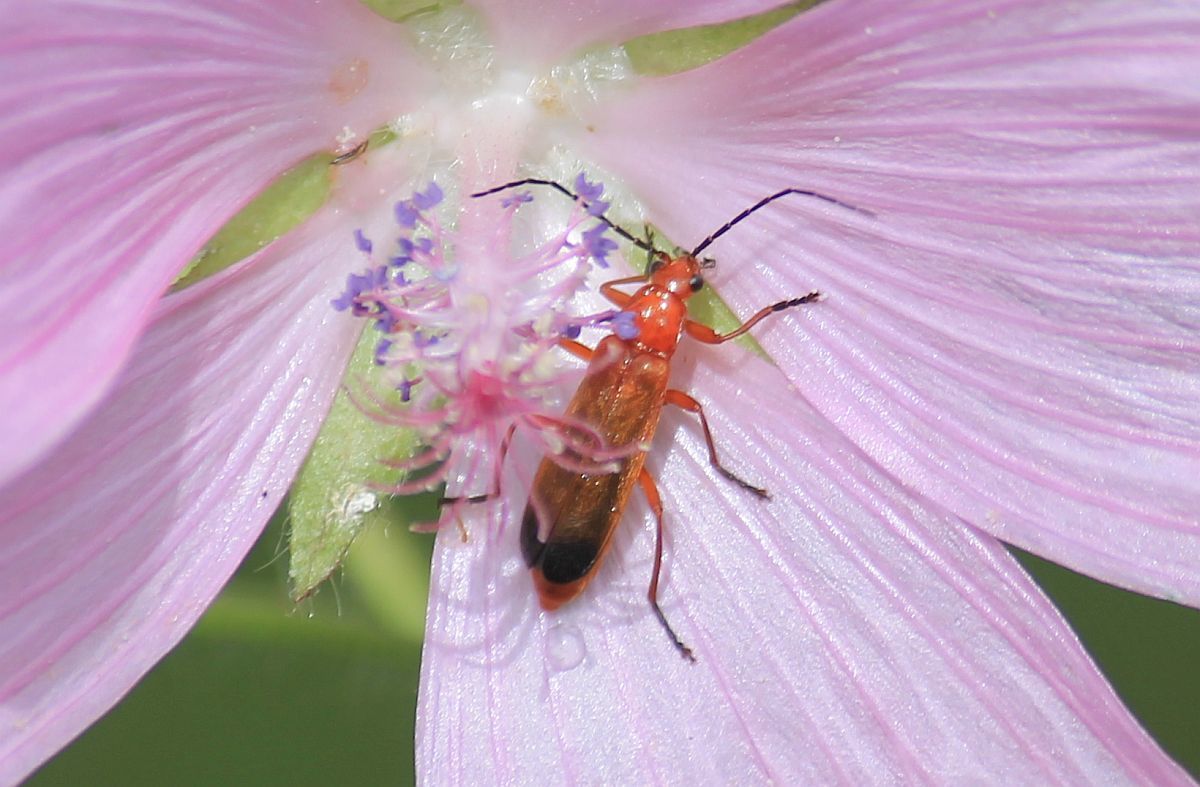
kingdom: Animalia
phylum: Arthropoda
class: Insecta
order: Coleoptera
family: Cantharidae
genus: Rhagonycha
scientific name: Rhagonycha fulva
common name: Common red soldier beetle
